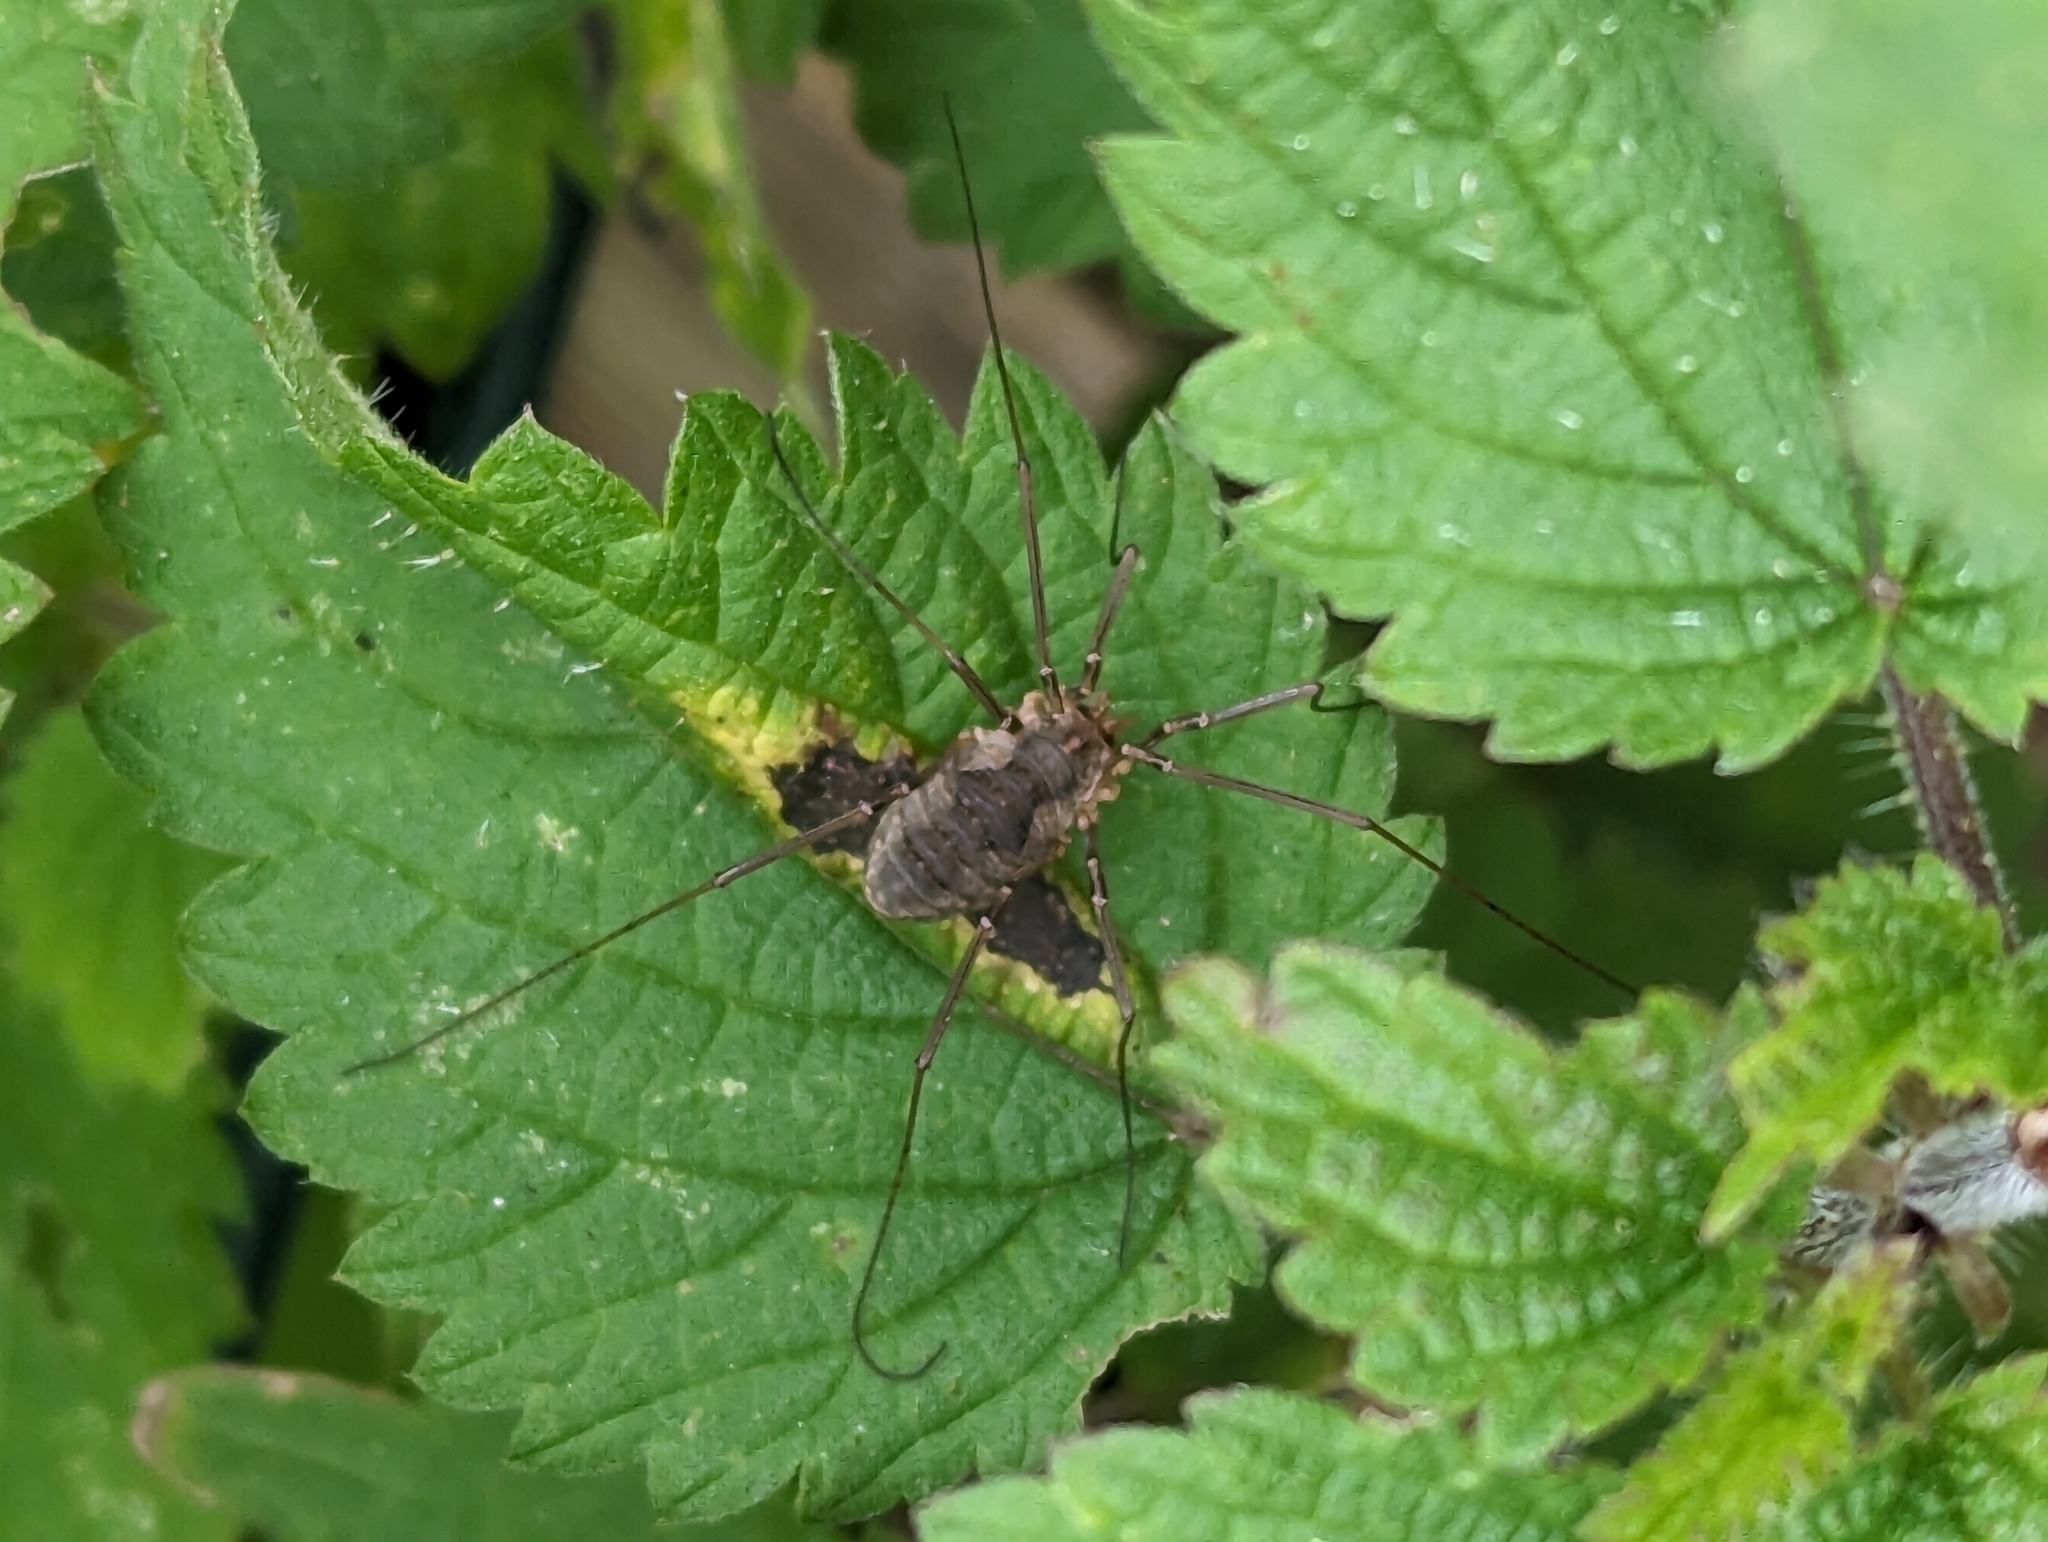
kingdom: Animalia
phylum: Arthropoda
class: Arachnida
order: Opiliones
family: Phalangiidae
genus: Phalangium
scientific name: Phalangium opilio
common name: Daddy longleg
